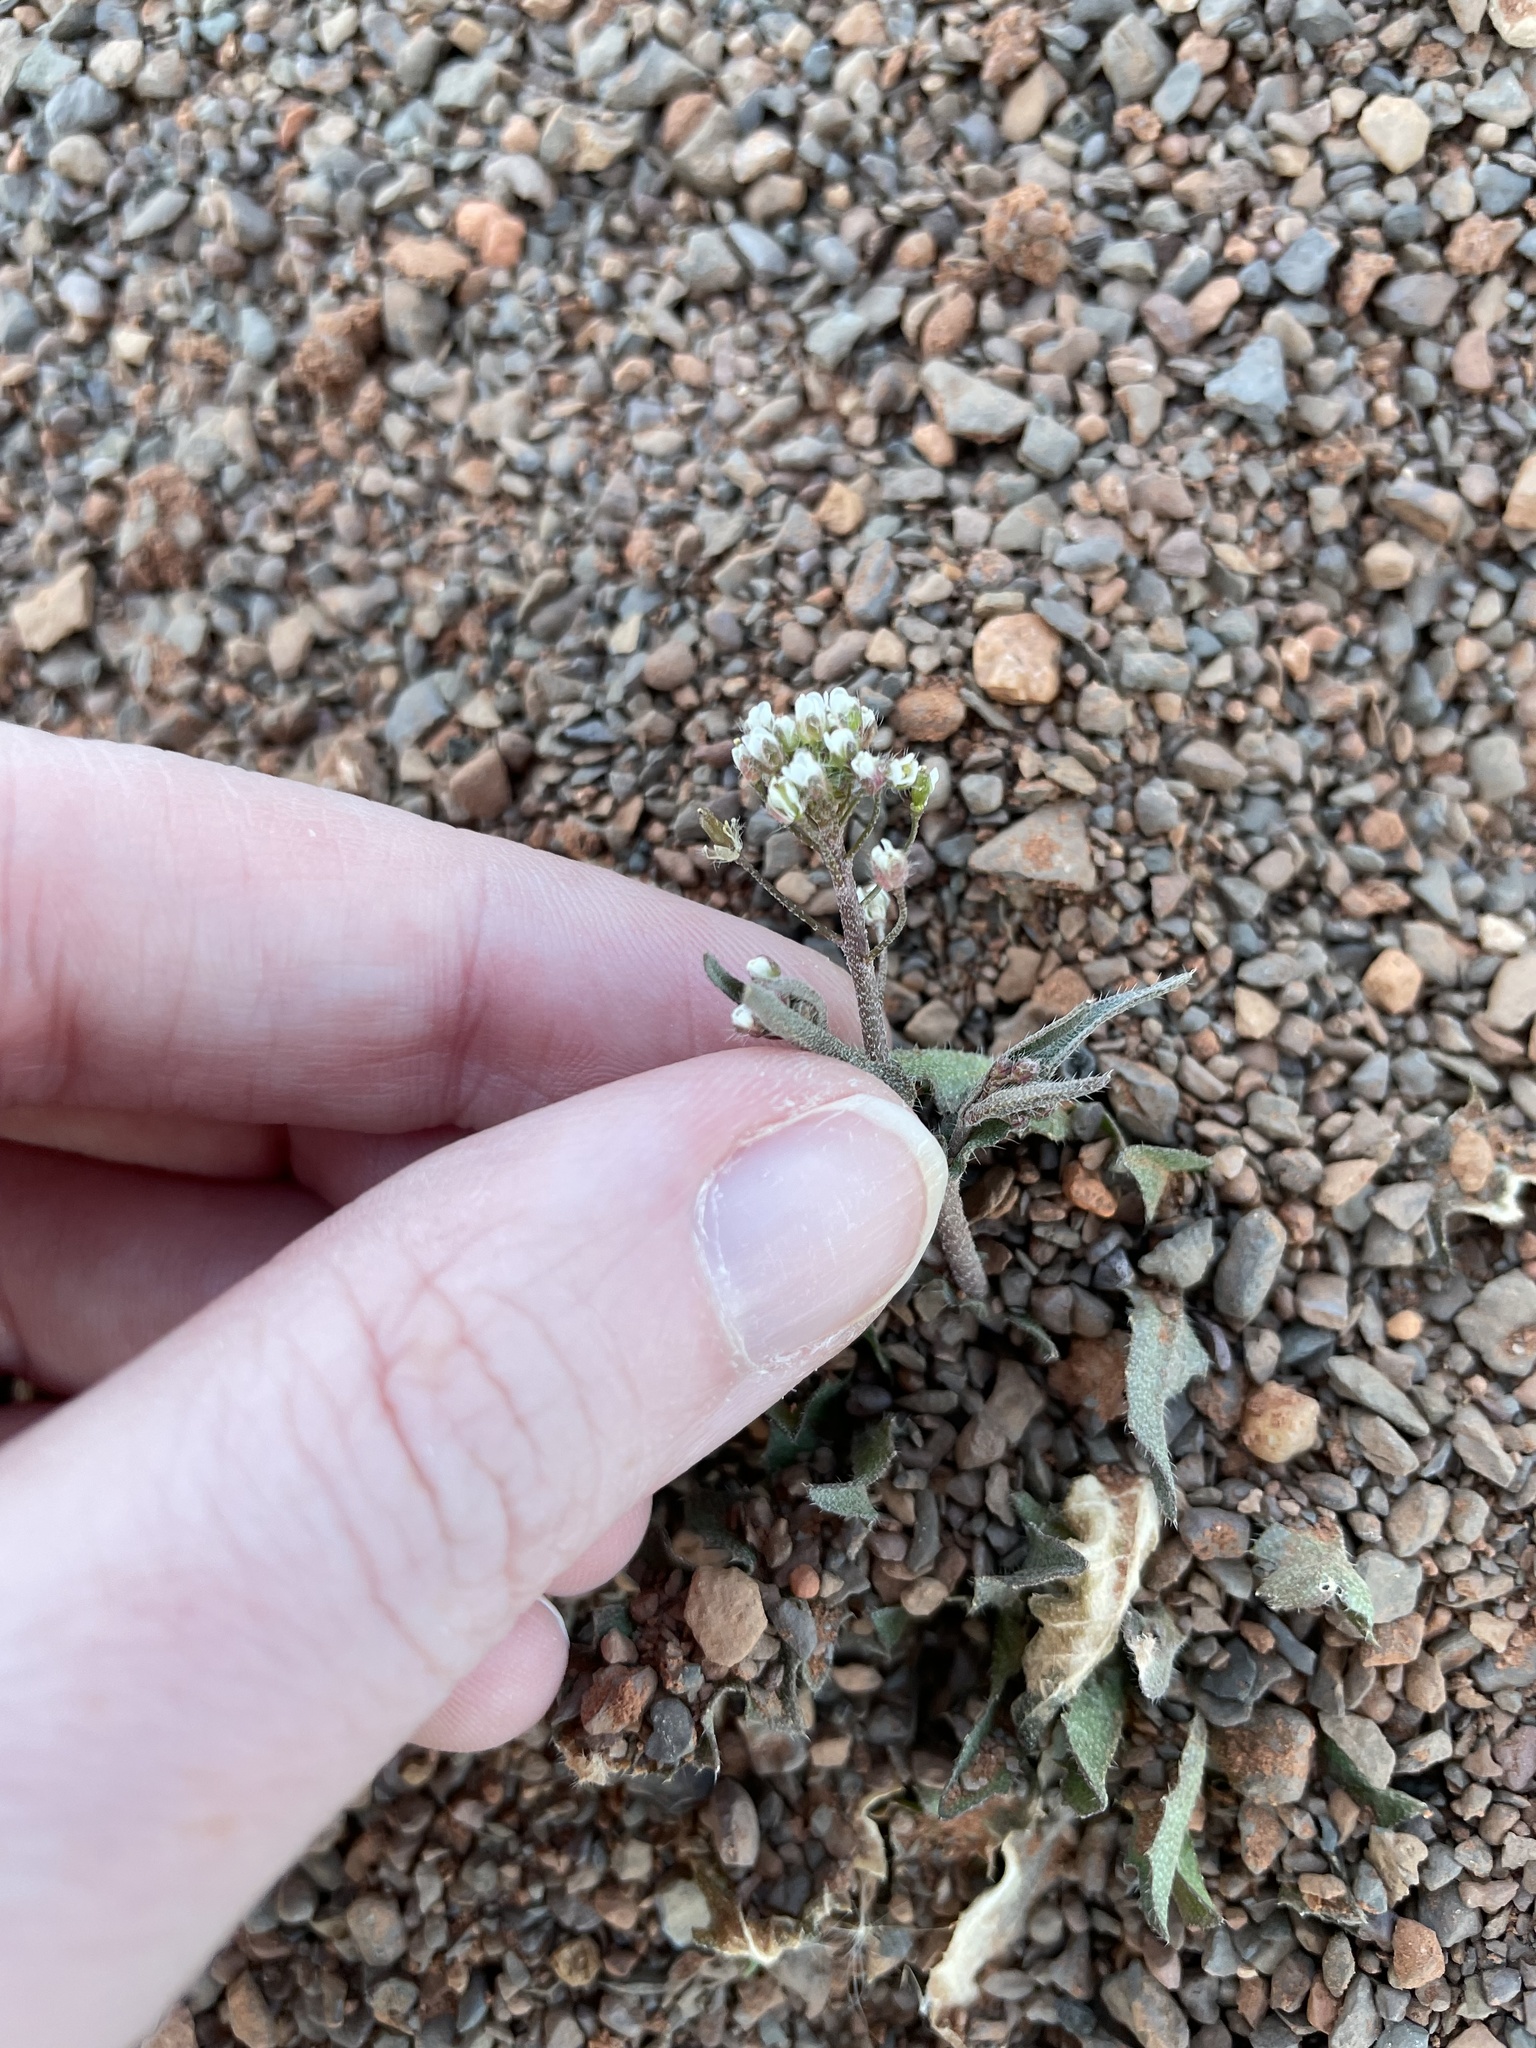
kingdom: Plantae
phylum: Tracheophyta
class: Magnoliopsida
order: Brassicales
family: Brassicaceae
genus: Capsella
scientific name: Capsella bursa-pastoris
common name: Shepherd's purse
